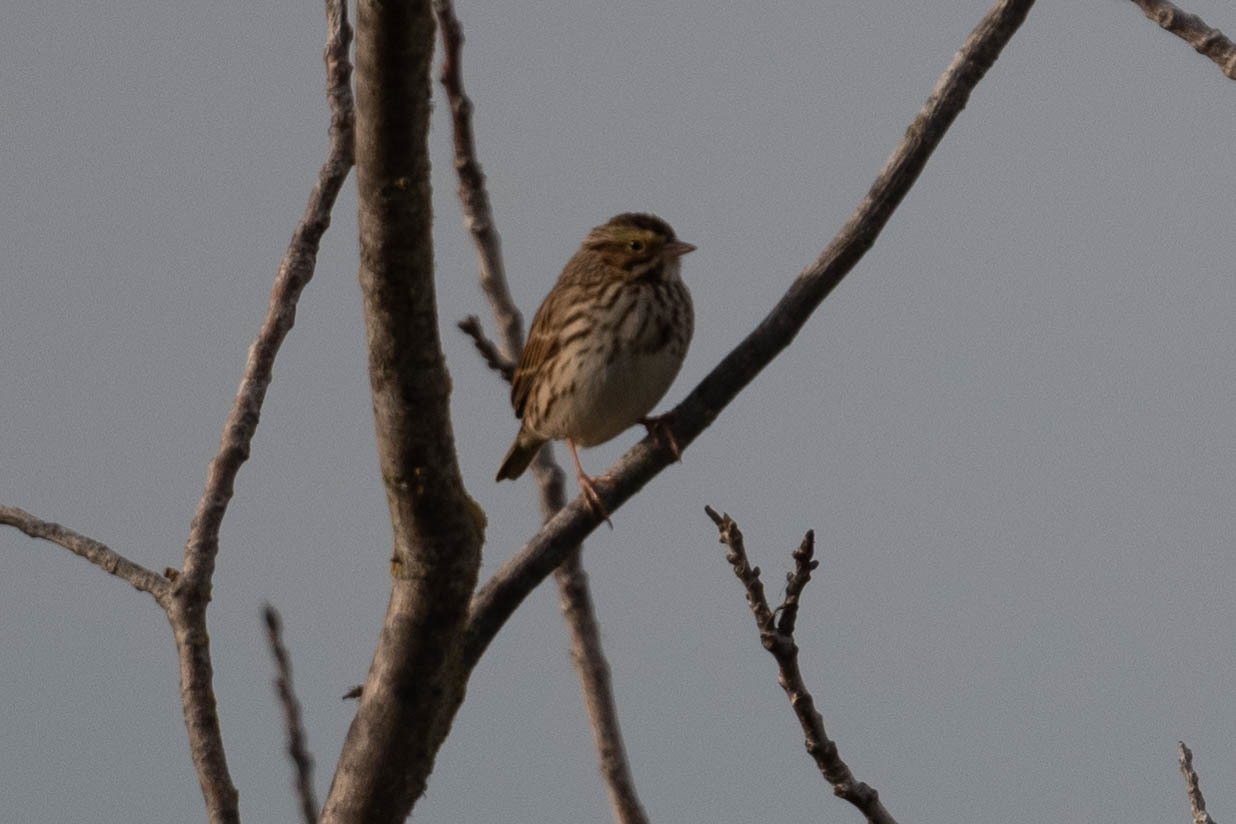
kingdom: Animalia
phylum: Chordata
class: Aves
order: Passeriformes
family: Passerellidae
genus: Passerculus
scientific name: Passerculus sandwichensis
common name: Savannah sparrow
